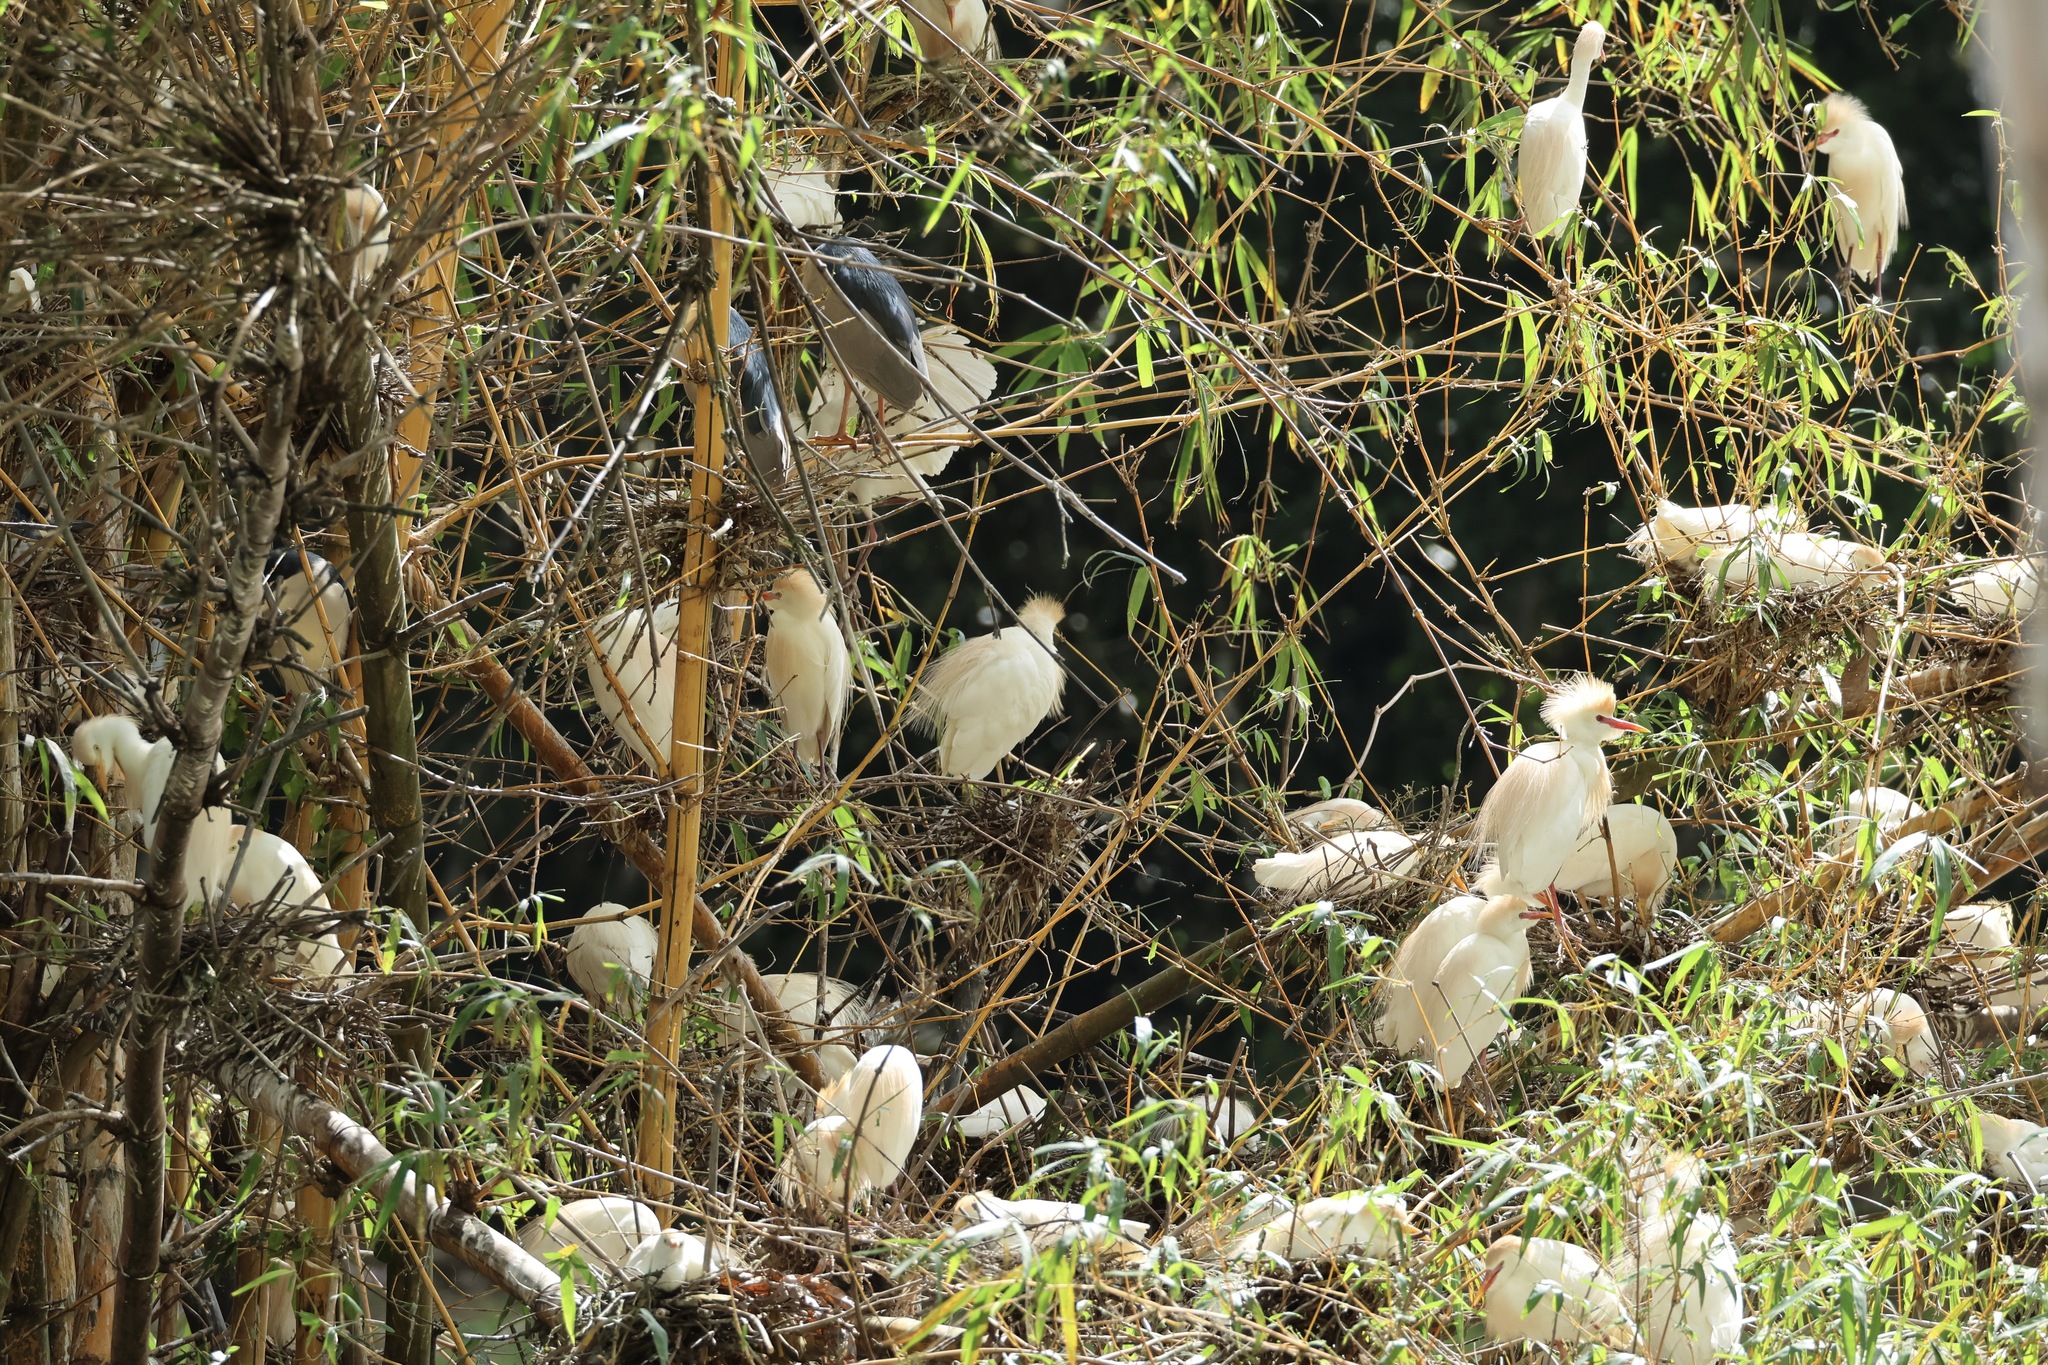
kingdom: Animalia
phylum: Chordata
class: Aves
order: Pelecaniformes
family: Ardeidae
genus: Bubulcus
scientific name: Bubulcus ibis
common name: Cattle egret
